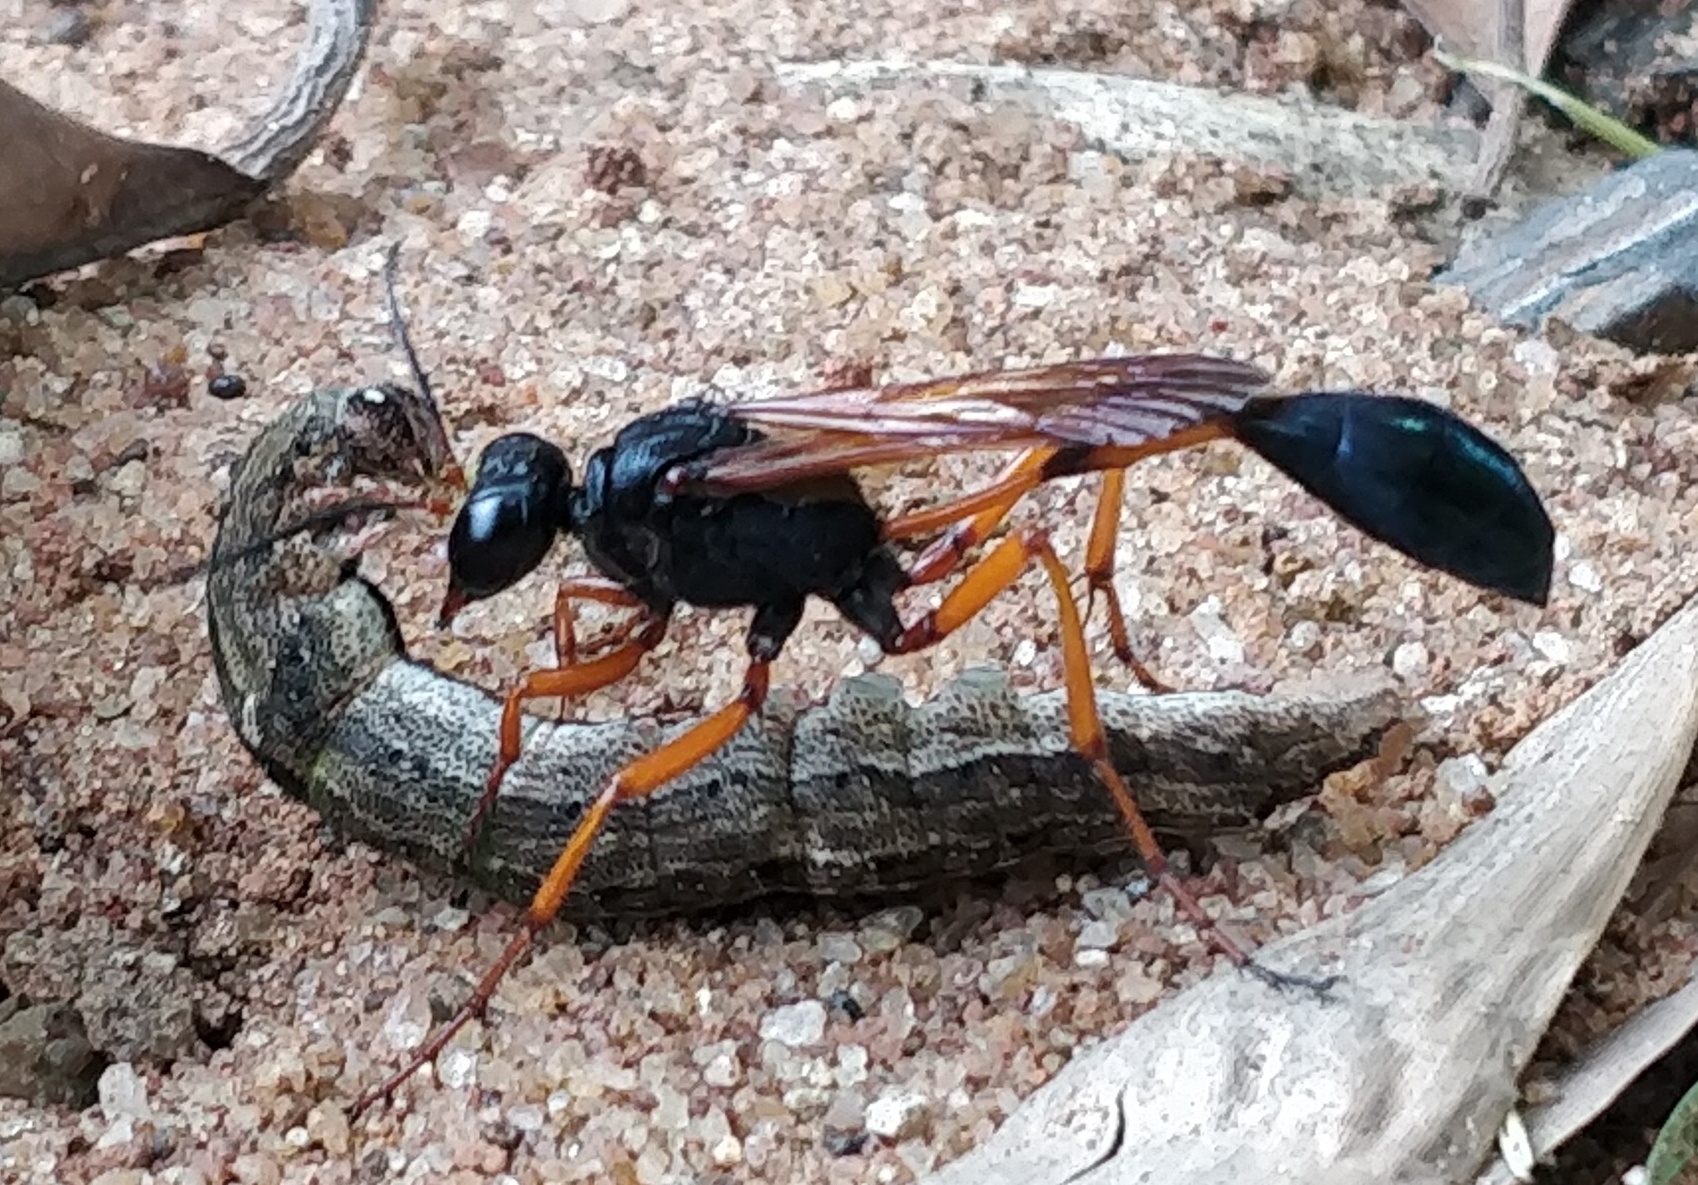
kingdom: Animalia
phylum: Arthropoda
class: Insecta
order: Hymenoptera
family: Sphecidae
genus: Ammophila
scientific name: Ammophila clavus
